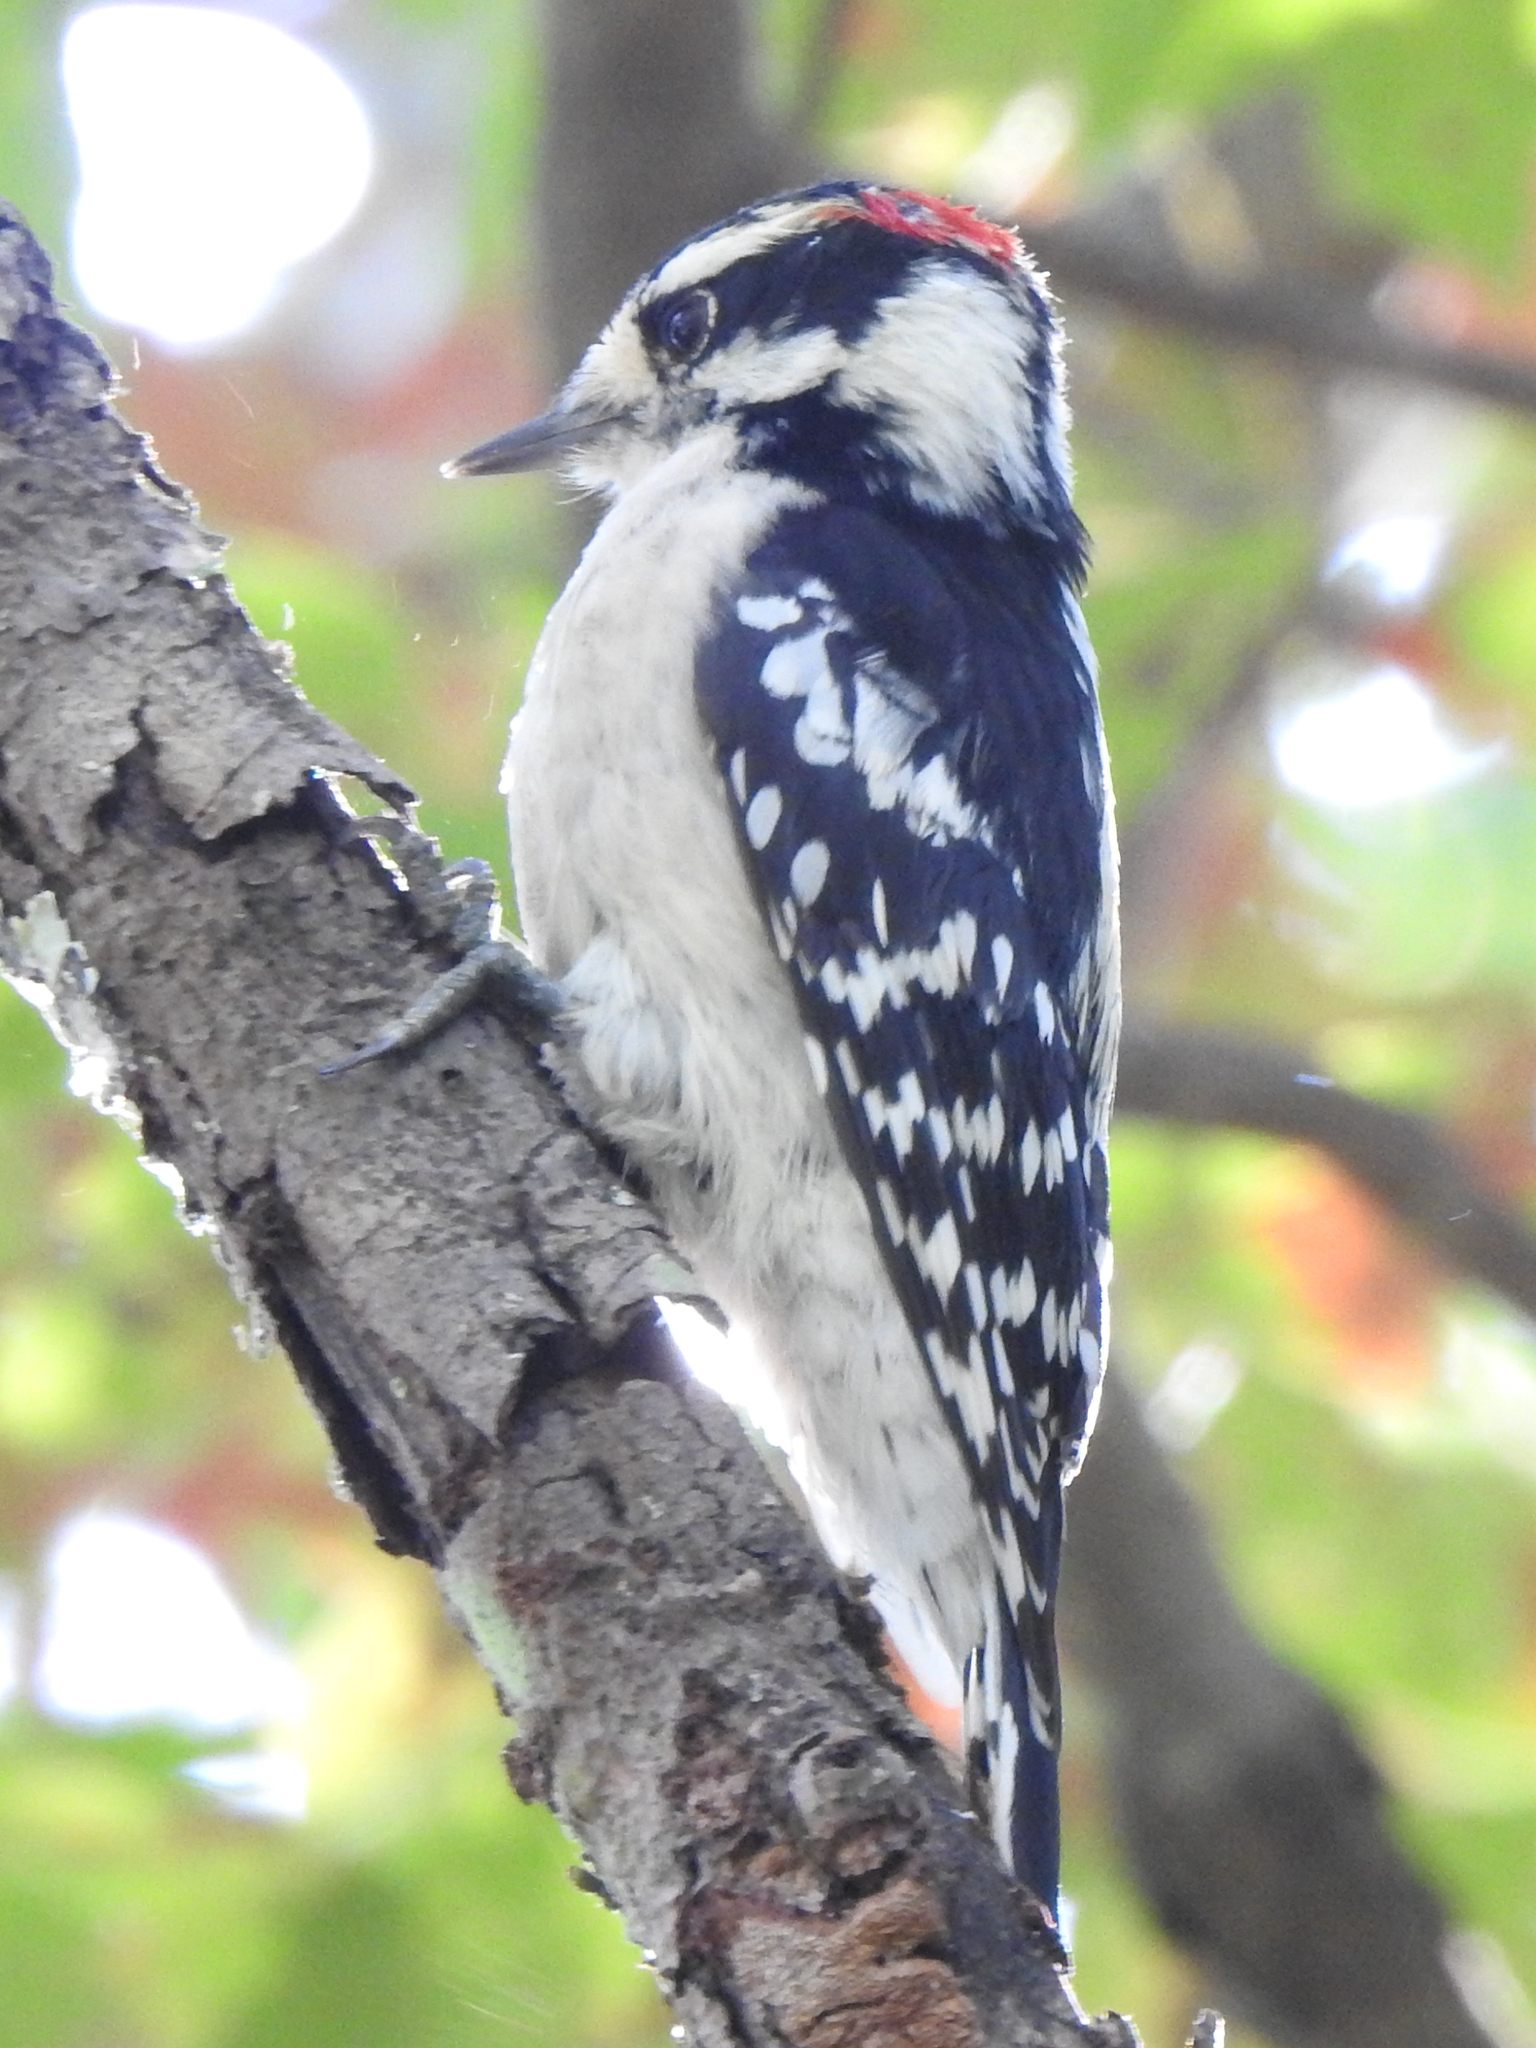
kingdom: Animalia
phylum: Chordata
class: Aves
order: Piciformes
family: Picidae
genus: Dryobates
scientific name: Dryobates pubescens
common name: Downy woodpecker
